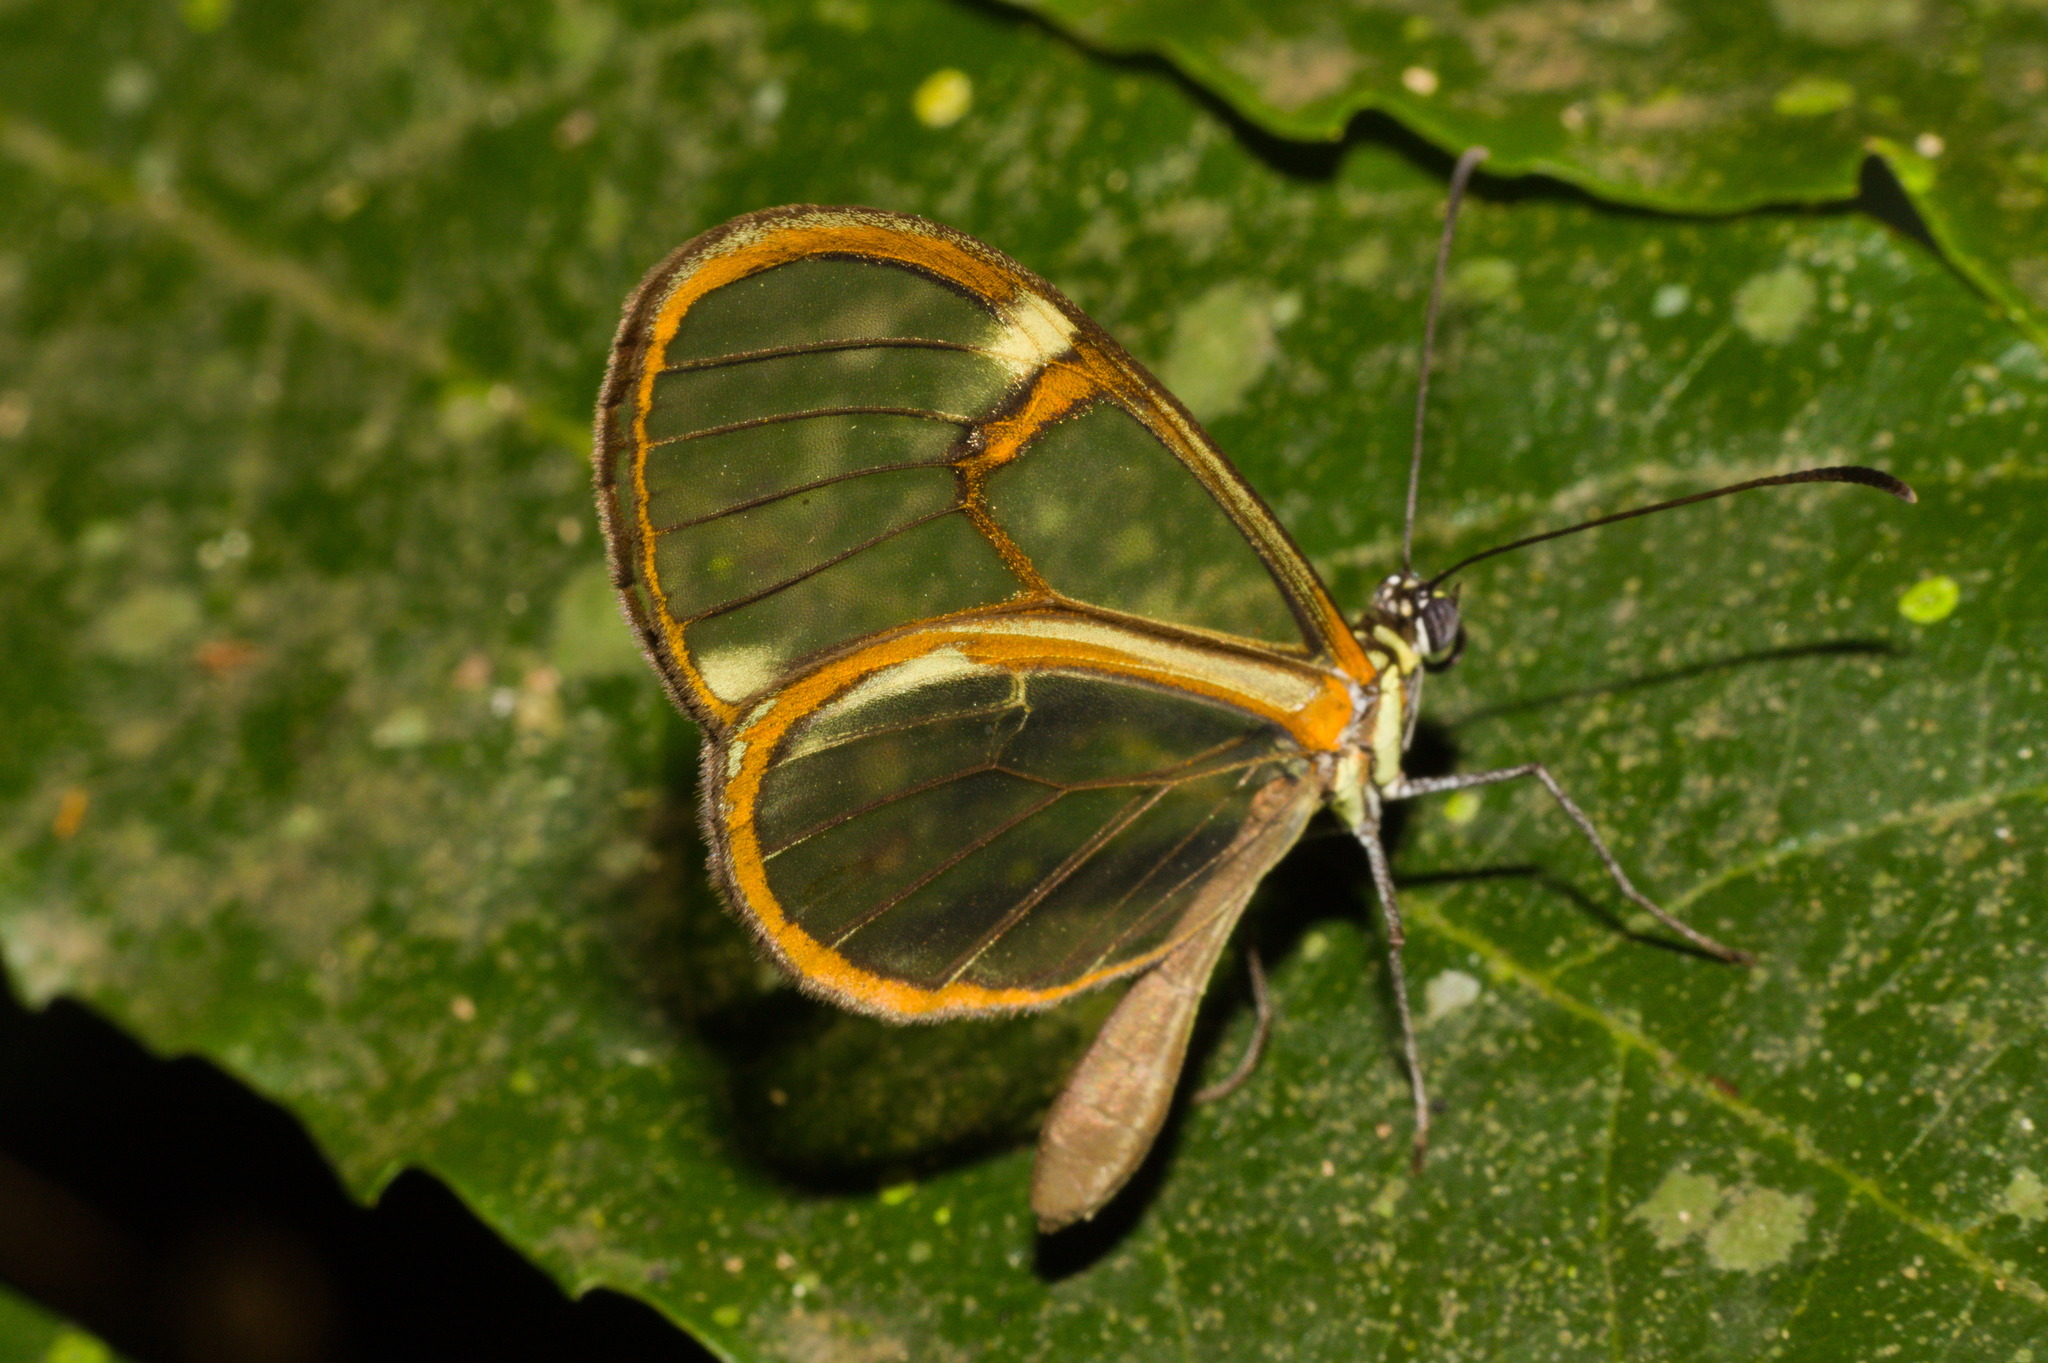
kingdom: Animalia
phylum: Arthropoda
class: Insecta
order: Lepidoptera
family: Nymphalidae
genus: Episcada
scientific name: Episcada hymenaea
